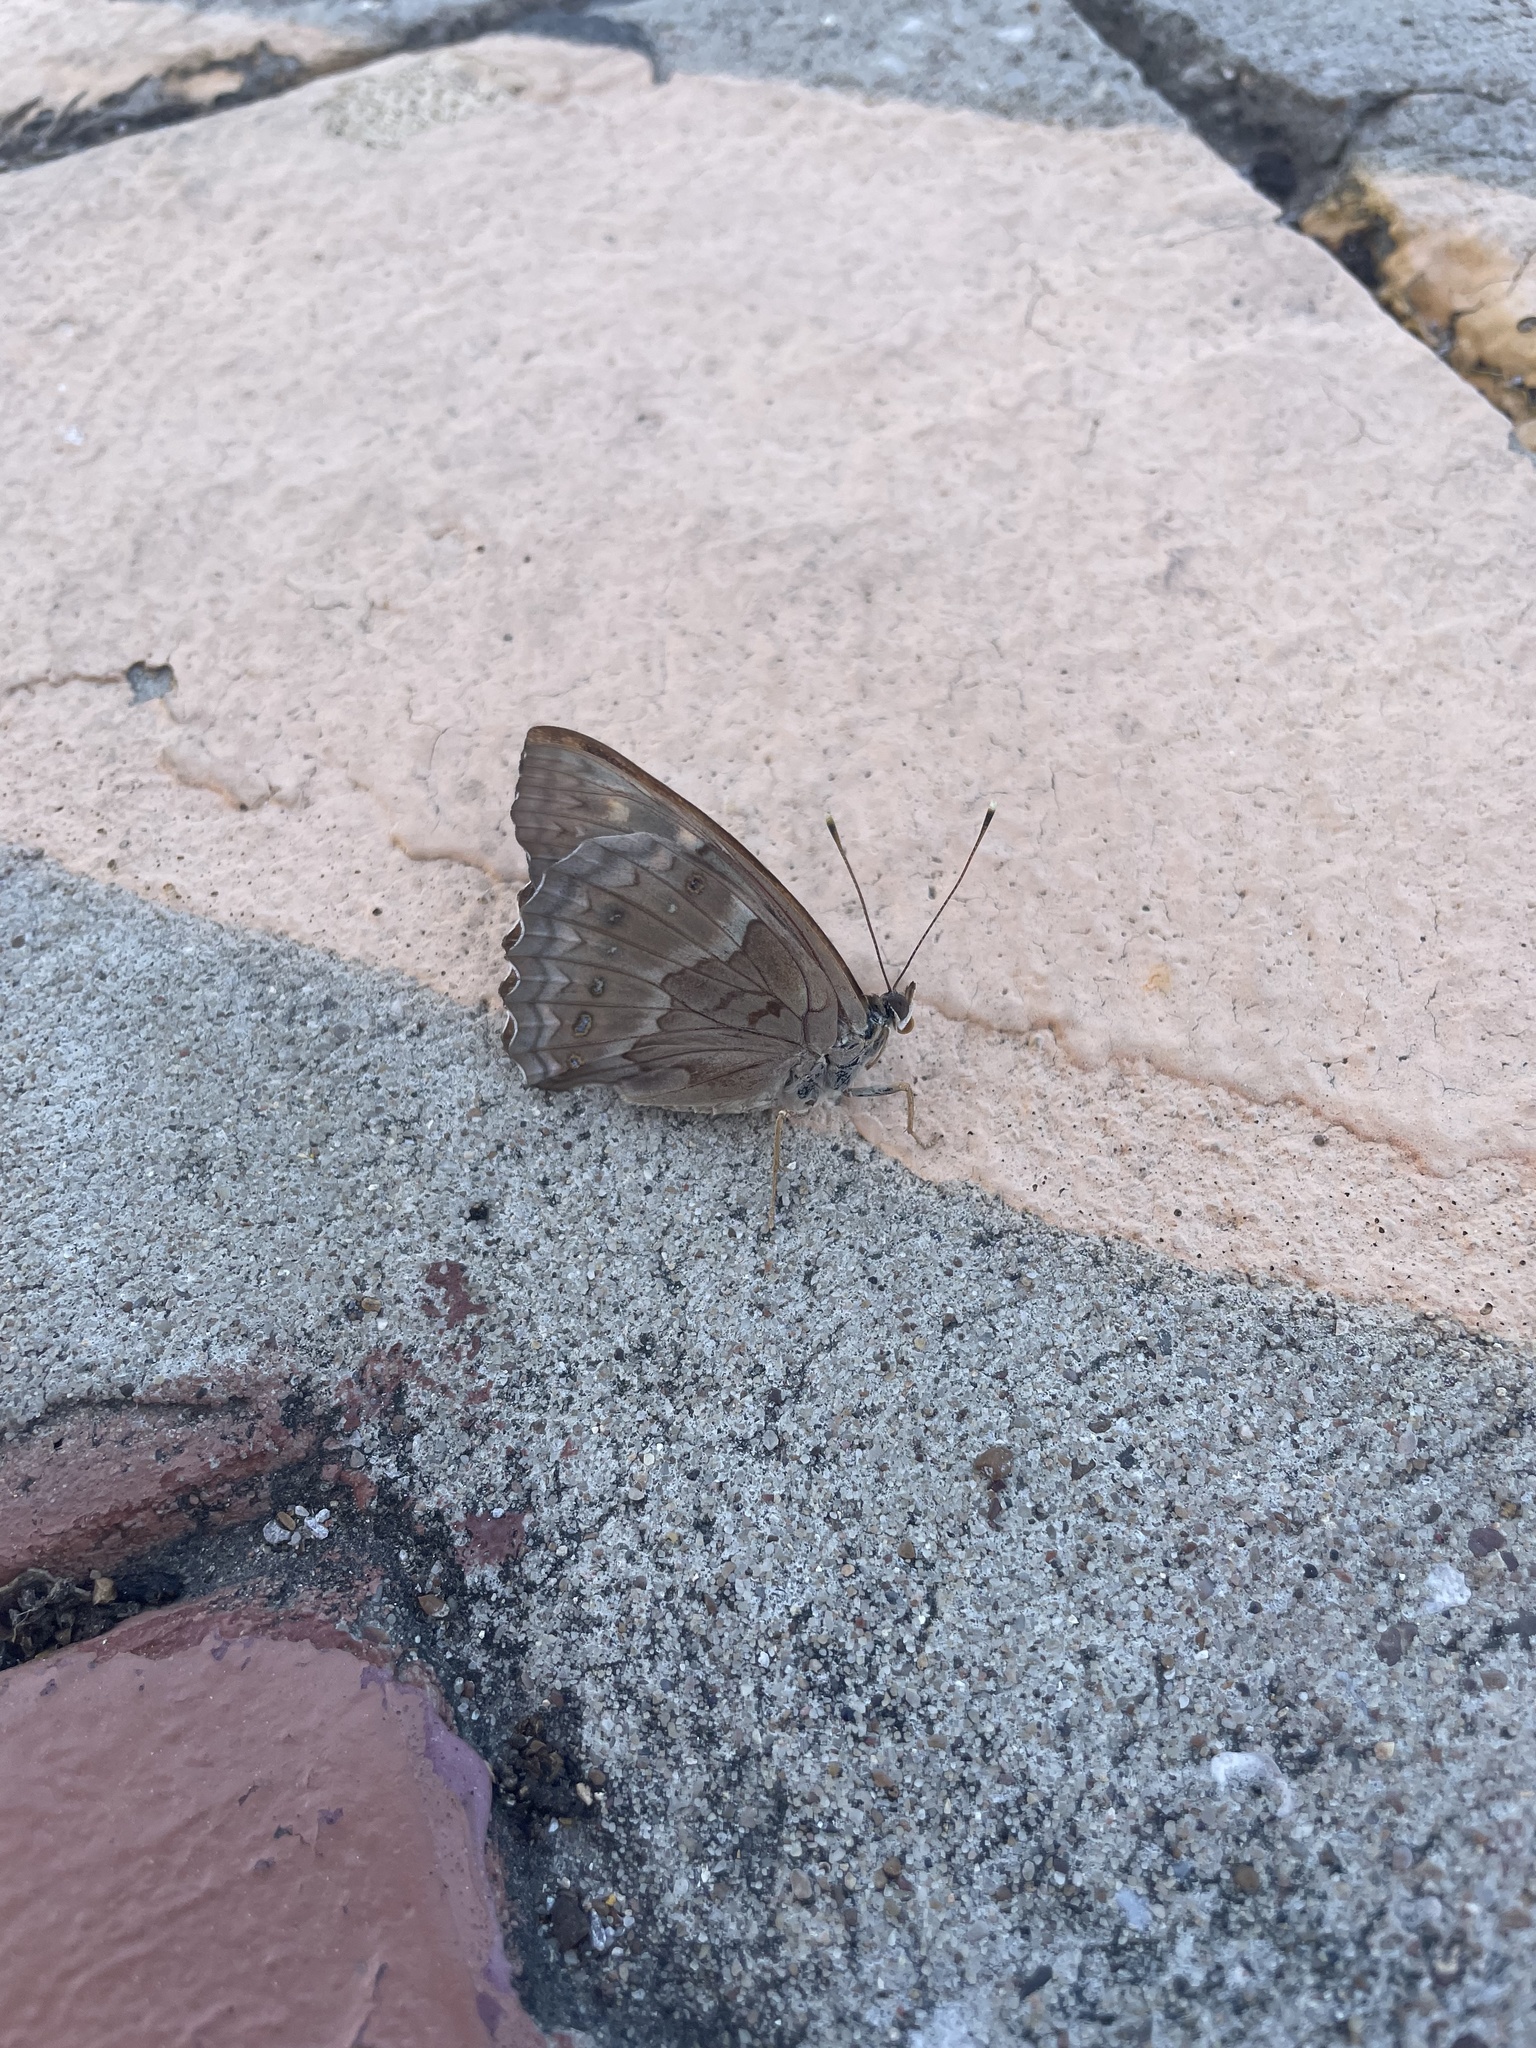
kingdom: Animalia
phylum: Arthropoda
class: Insecta
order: Lepidoptera
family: Nymphalidae
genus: Asterocampa
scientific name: Asterocampa clyton
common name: Tawny emperor
